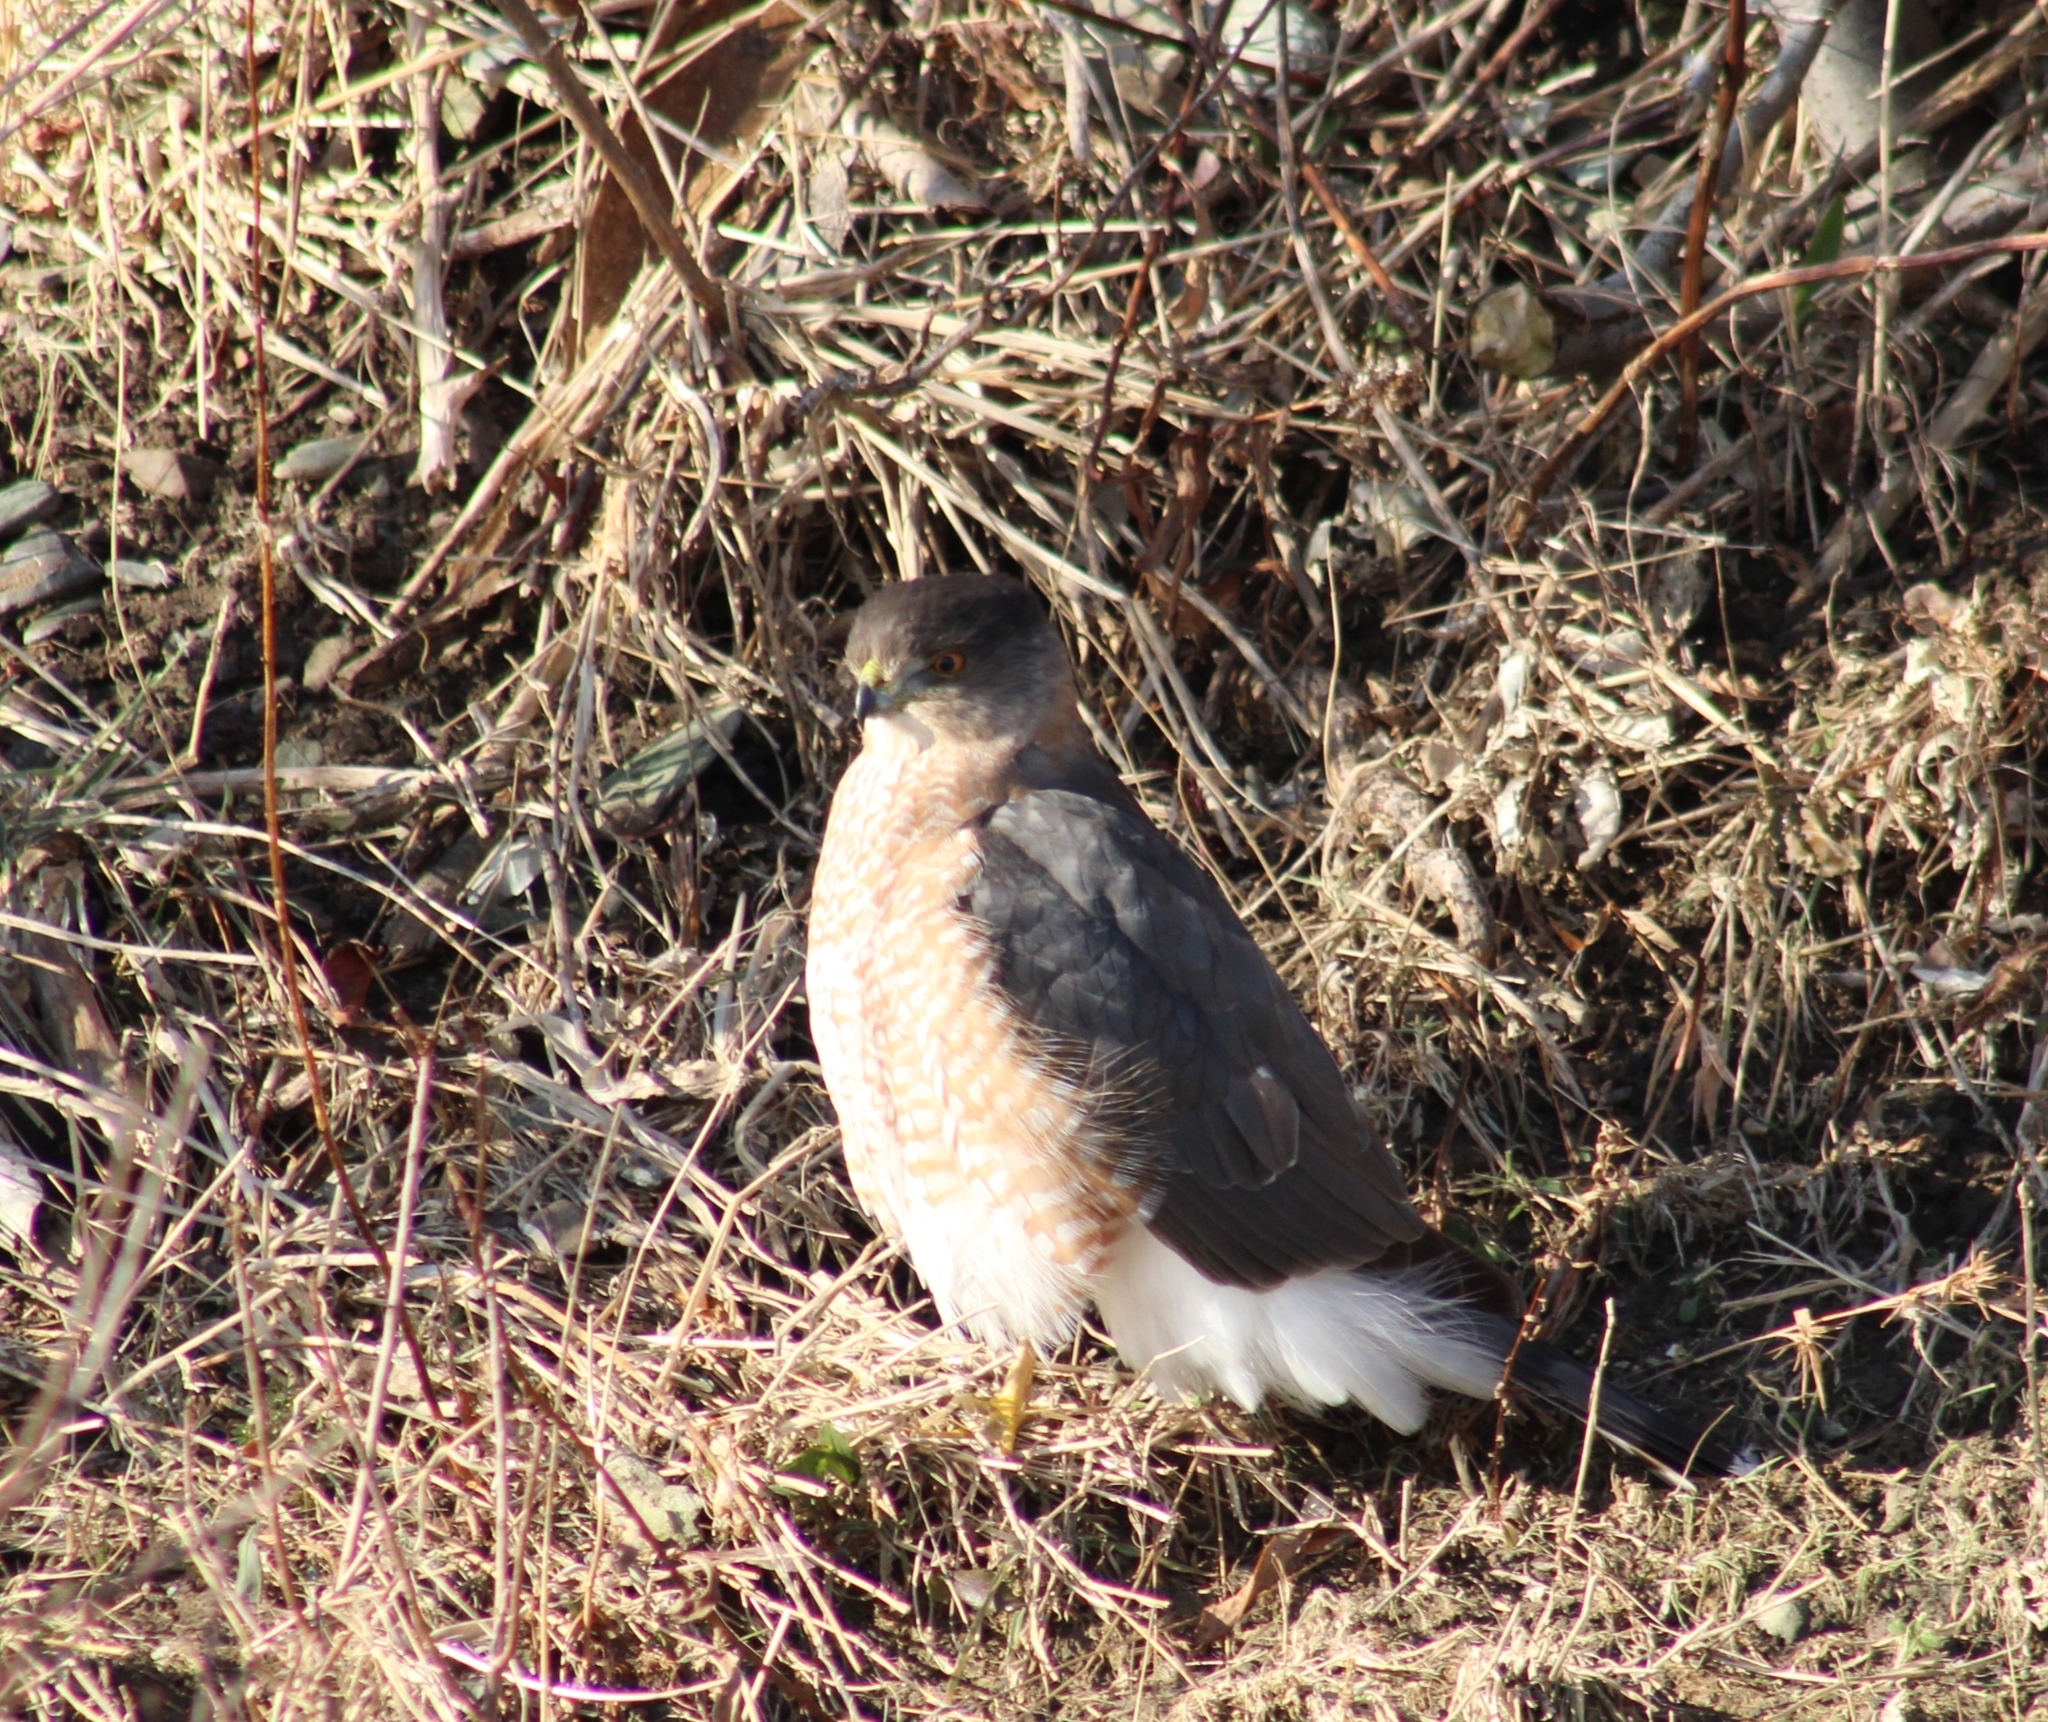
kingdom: Animalia
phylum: Chordata
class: Aves
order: Accipitriformes
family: Accipitridae
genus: Accipiter
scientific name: Accipiter cooperii
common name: Cooper's hawk
